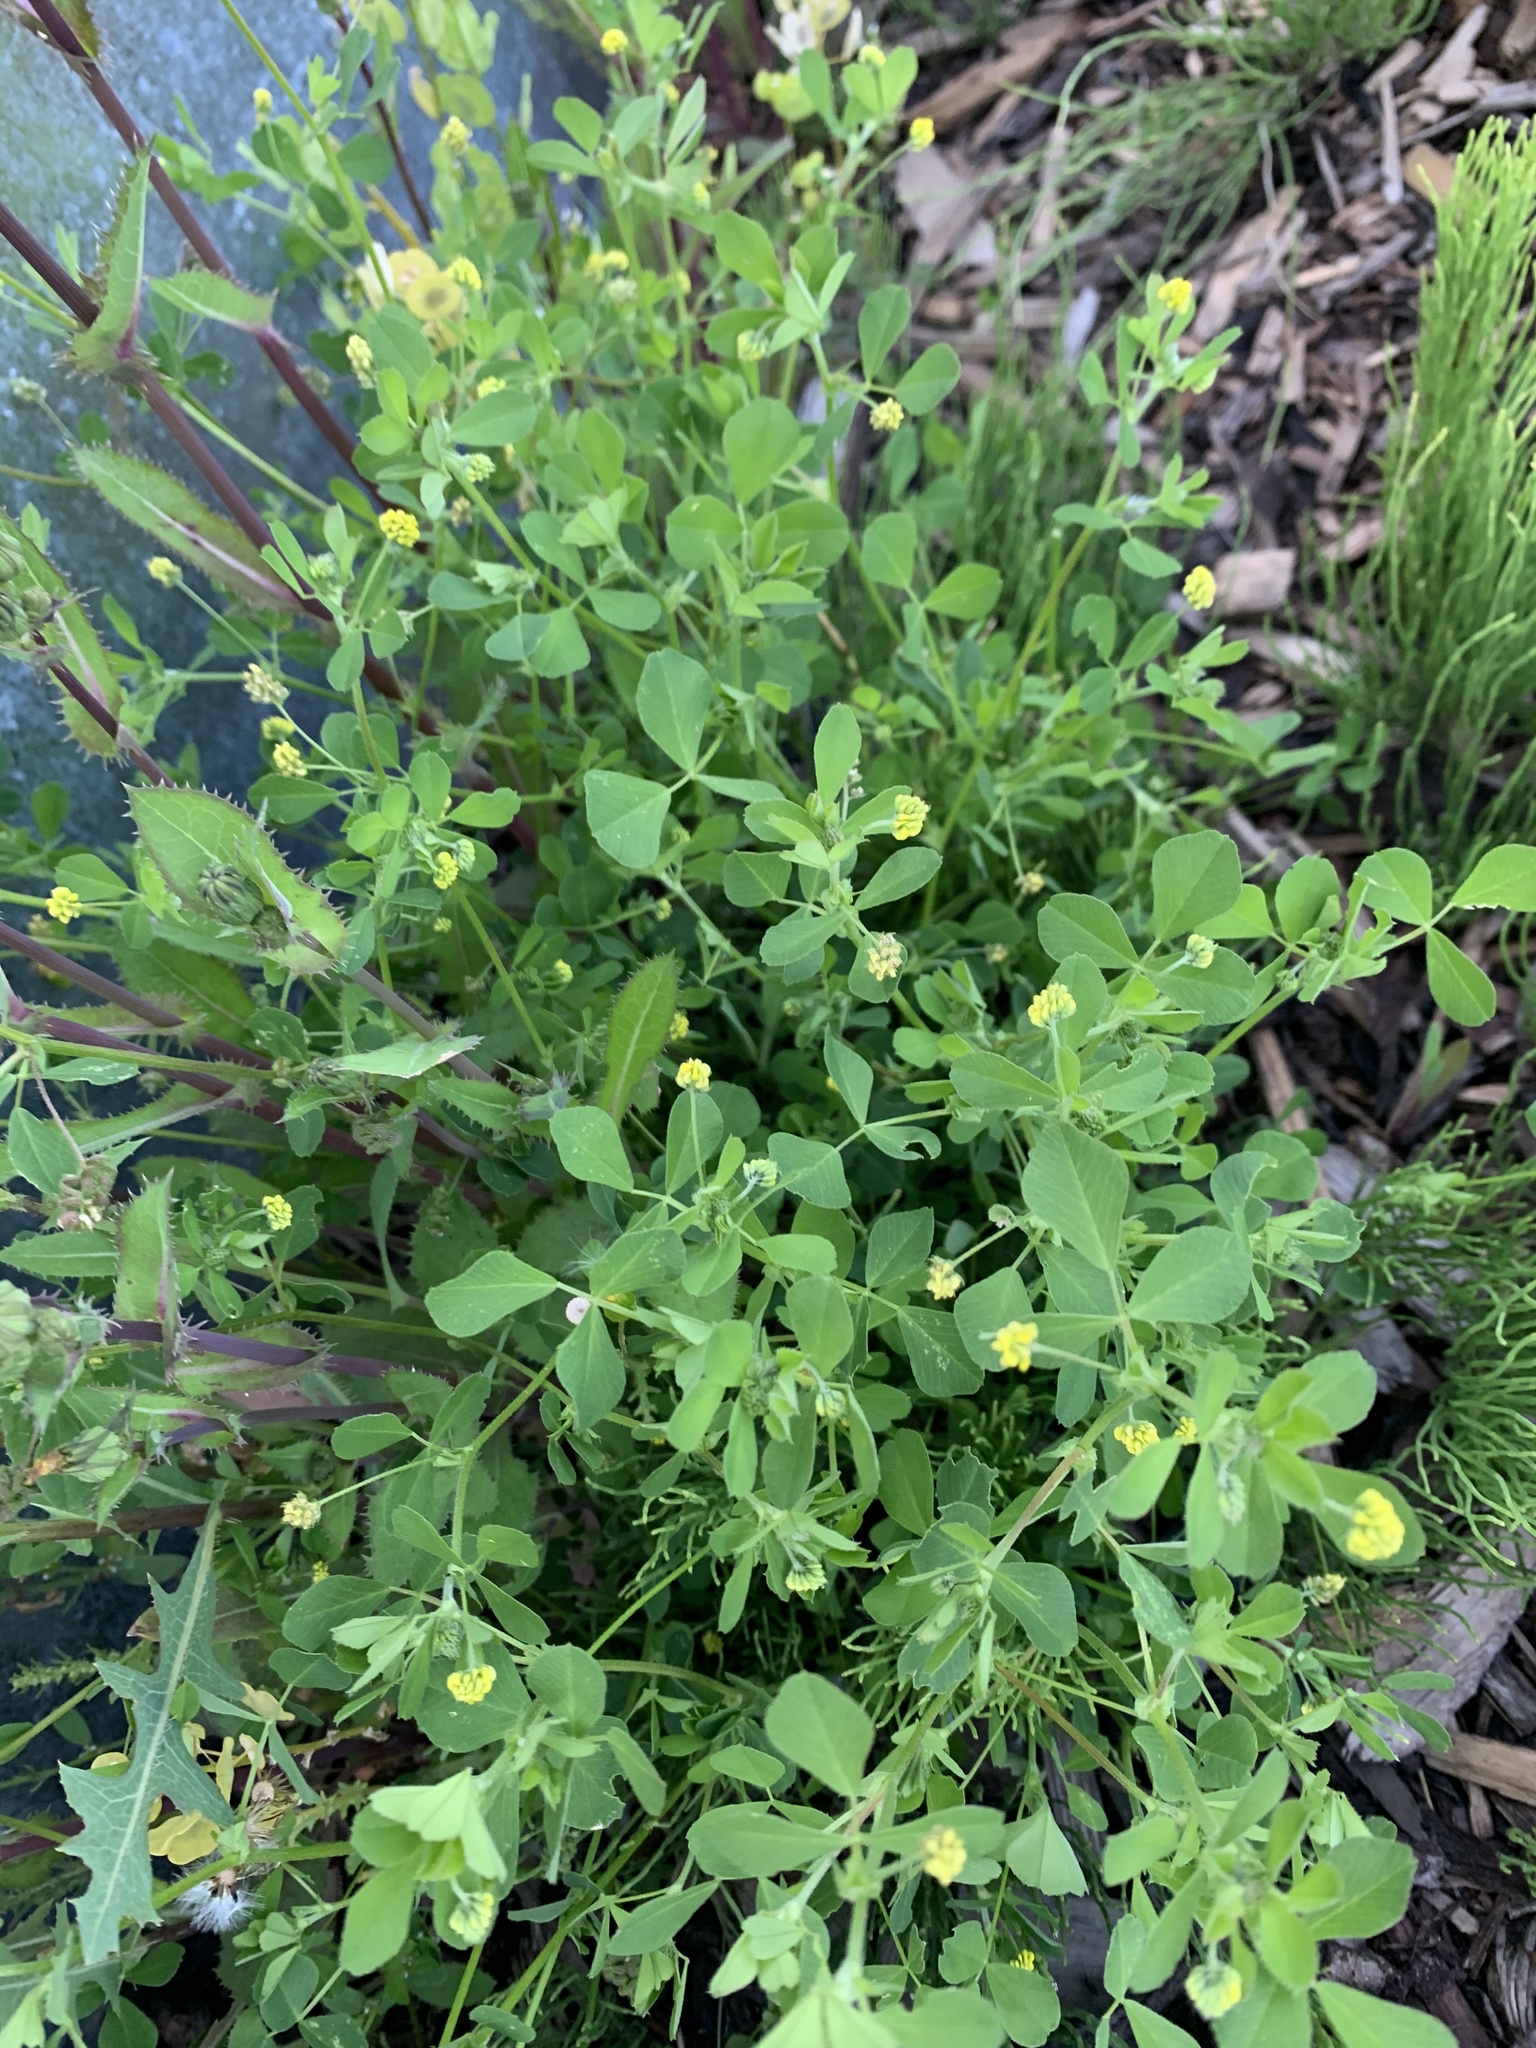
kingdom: Plantae
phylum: Tracheophyta
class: Magnoliopsida
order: Fabales
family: Fabaceae
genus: Medicago
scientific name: Medicago lupulina
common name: Black medick
